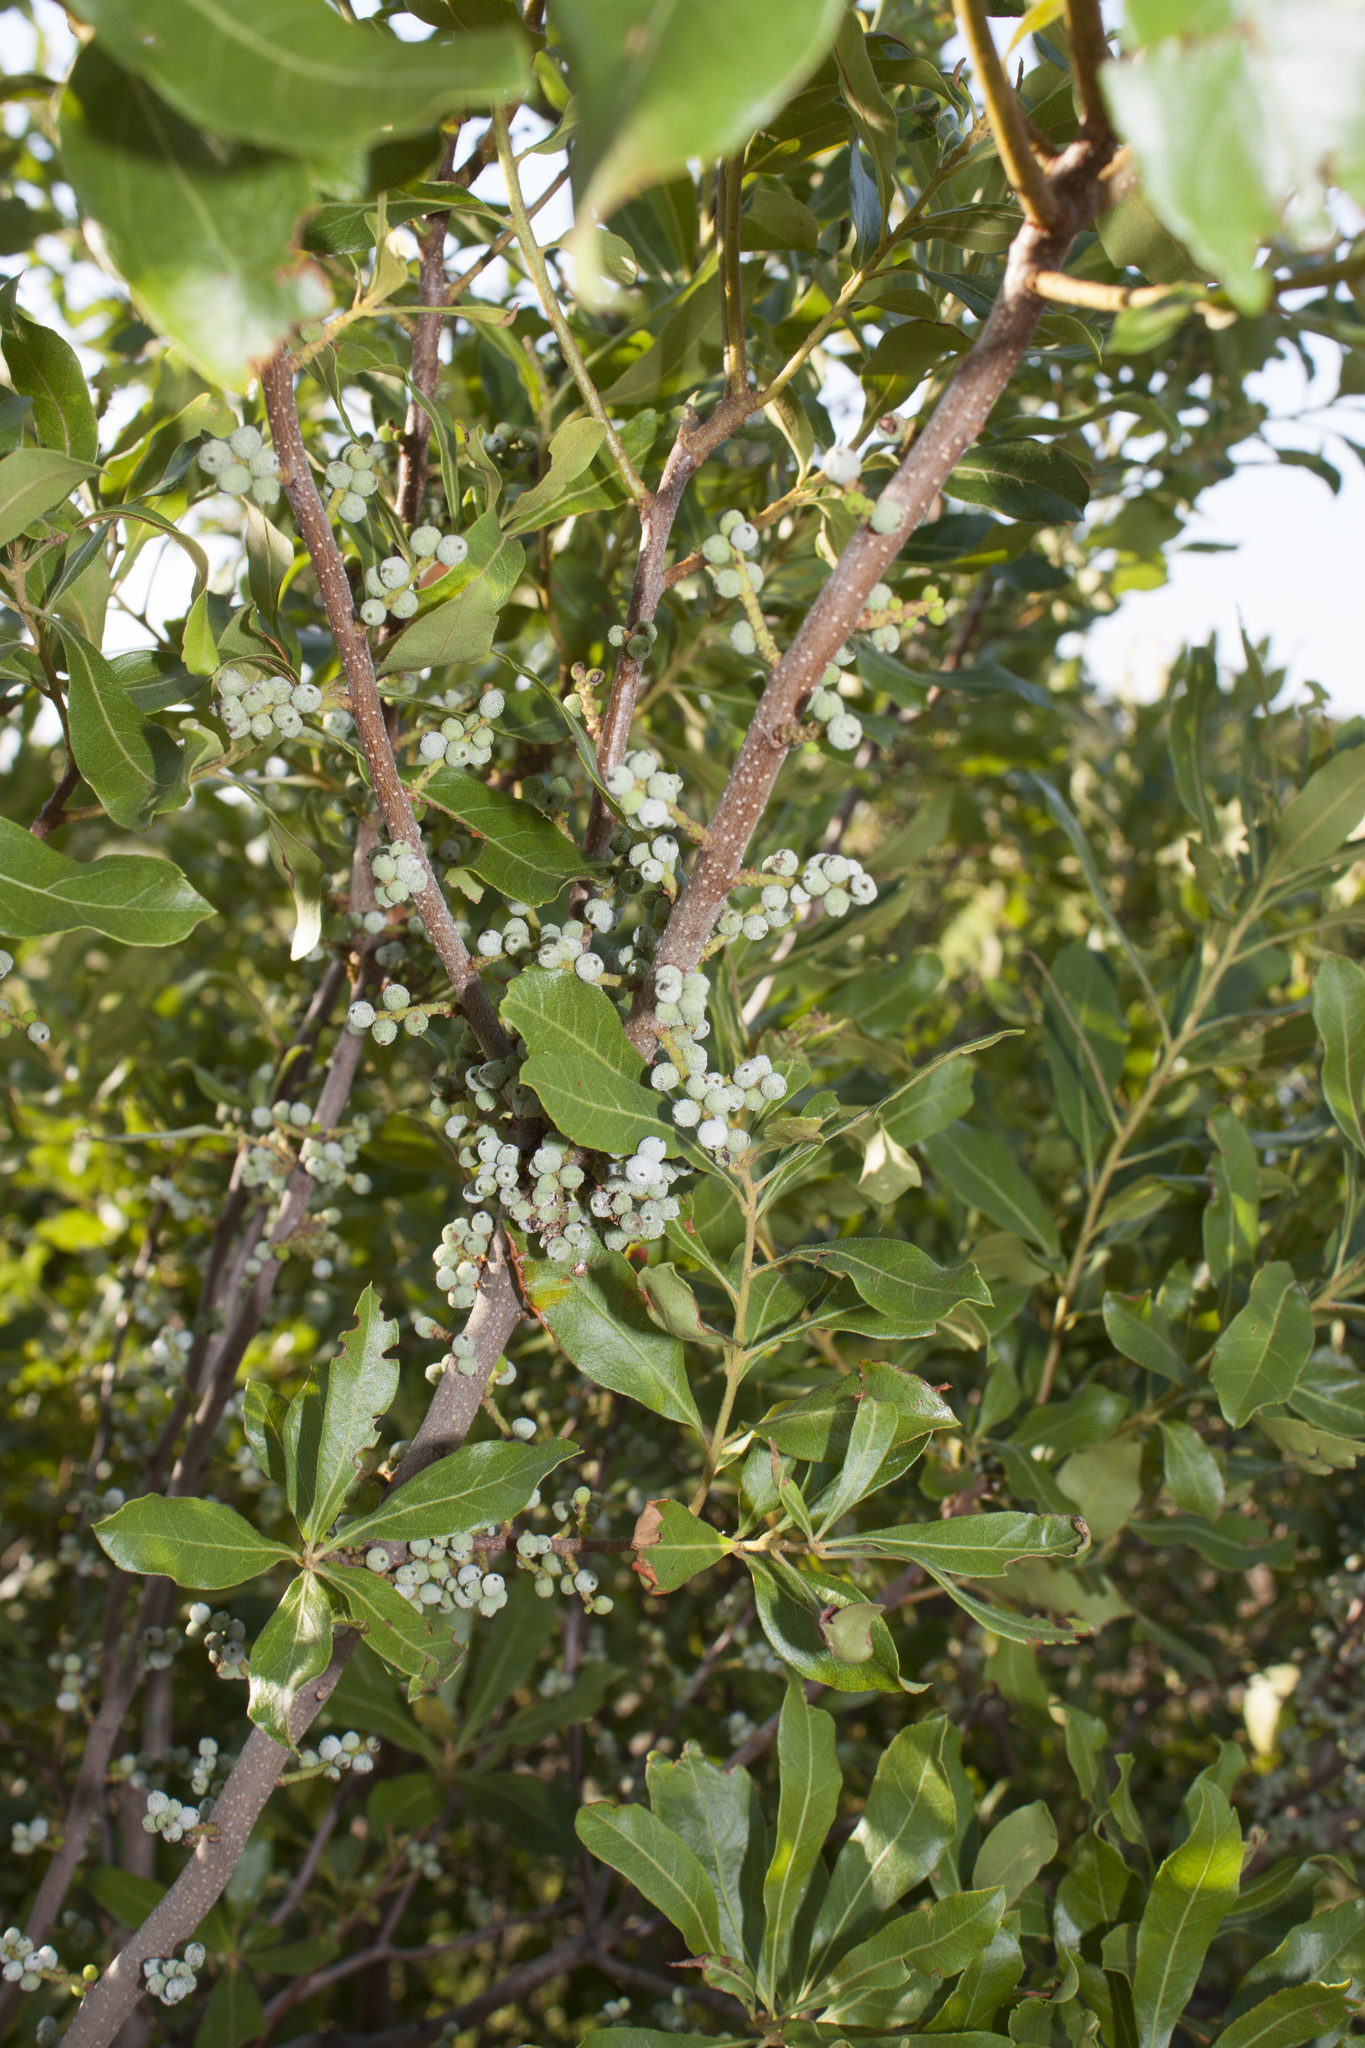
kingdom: Plantae
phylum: Tracheophyta
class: Magnoliopsida
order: Fagales
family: Myricaceae
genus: Morella
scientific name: Morella pensylvanica
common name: Northern bayberry
